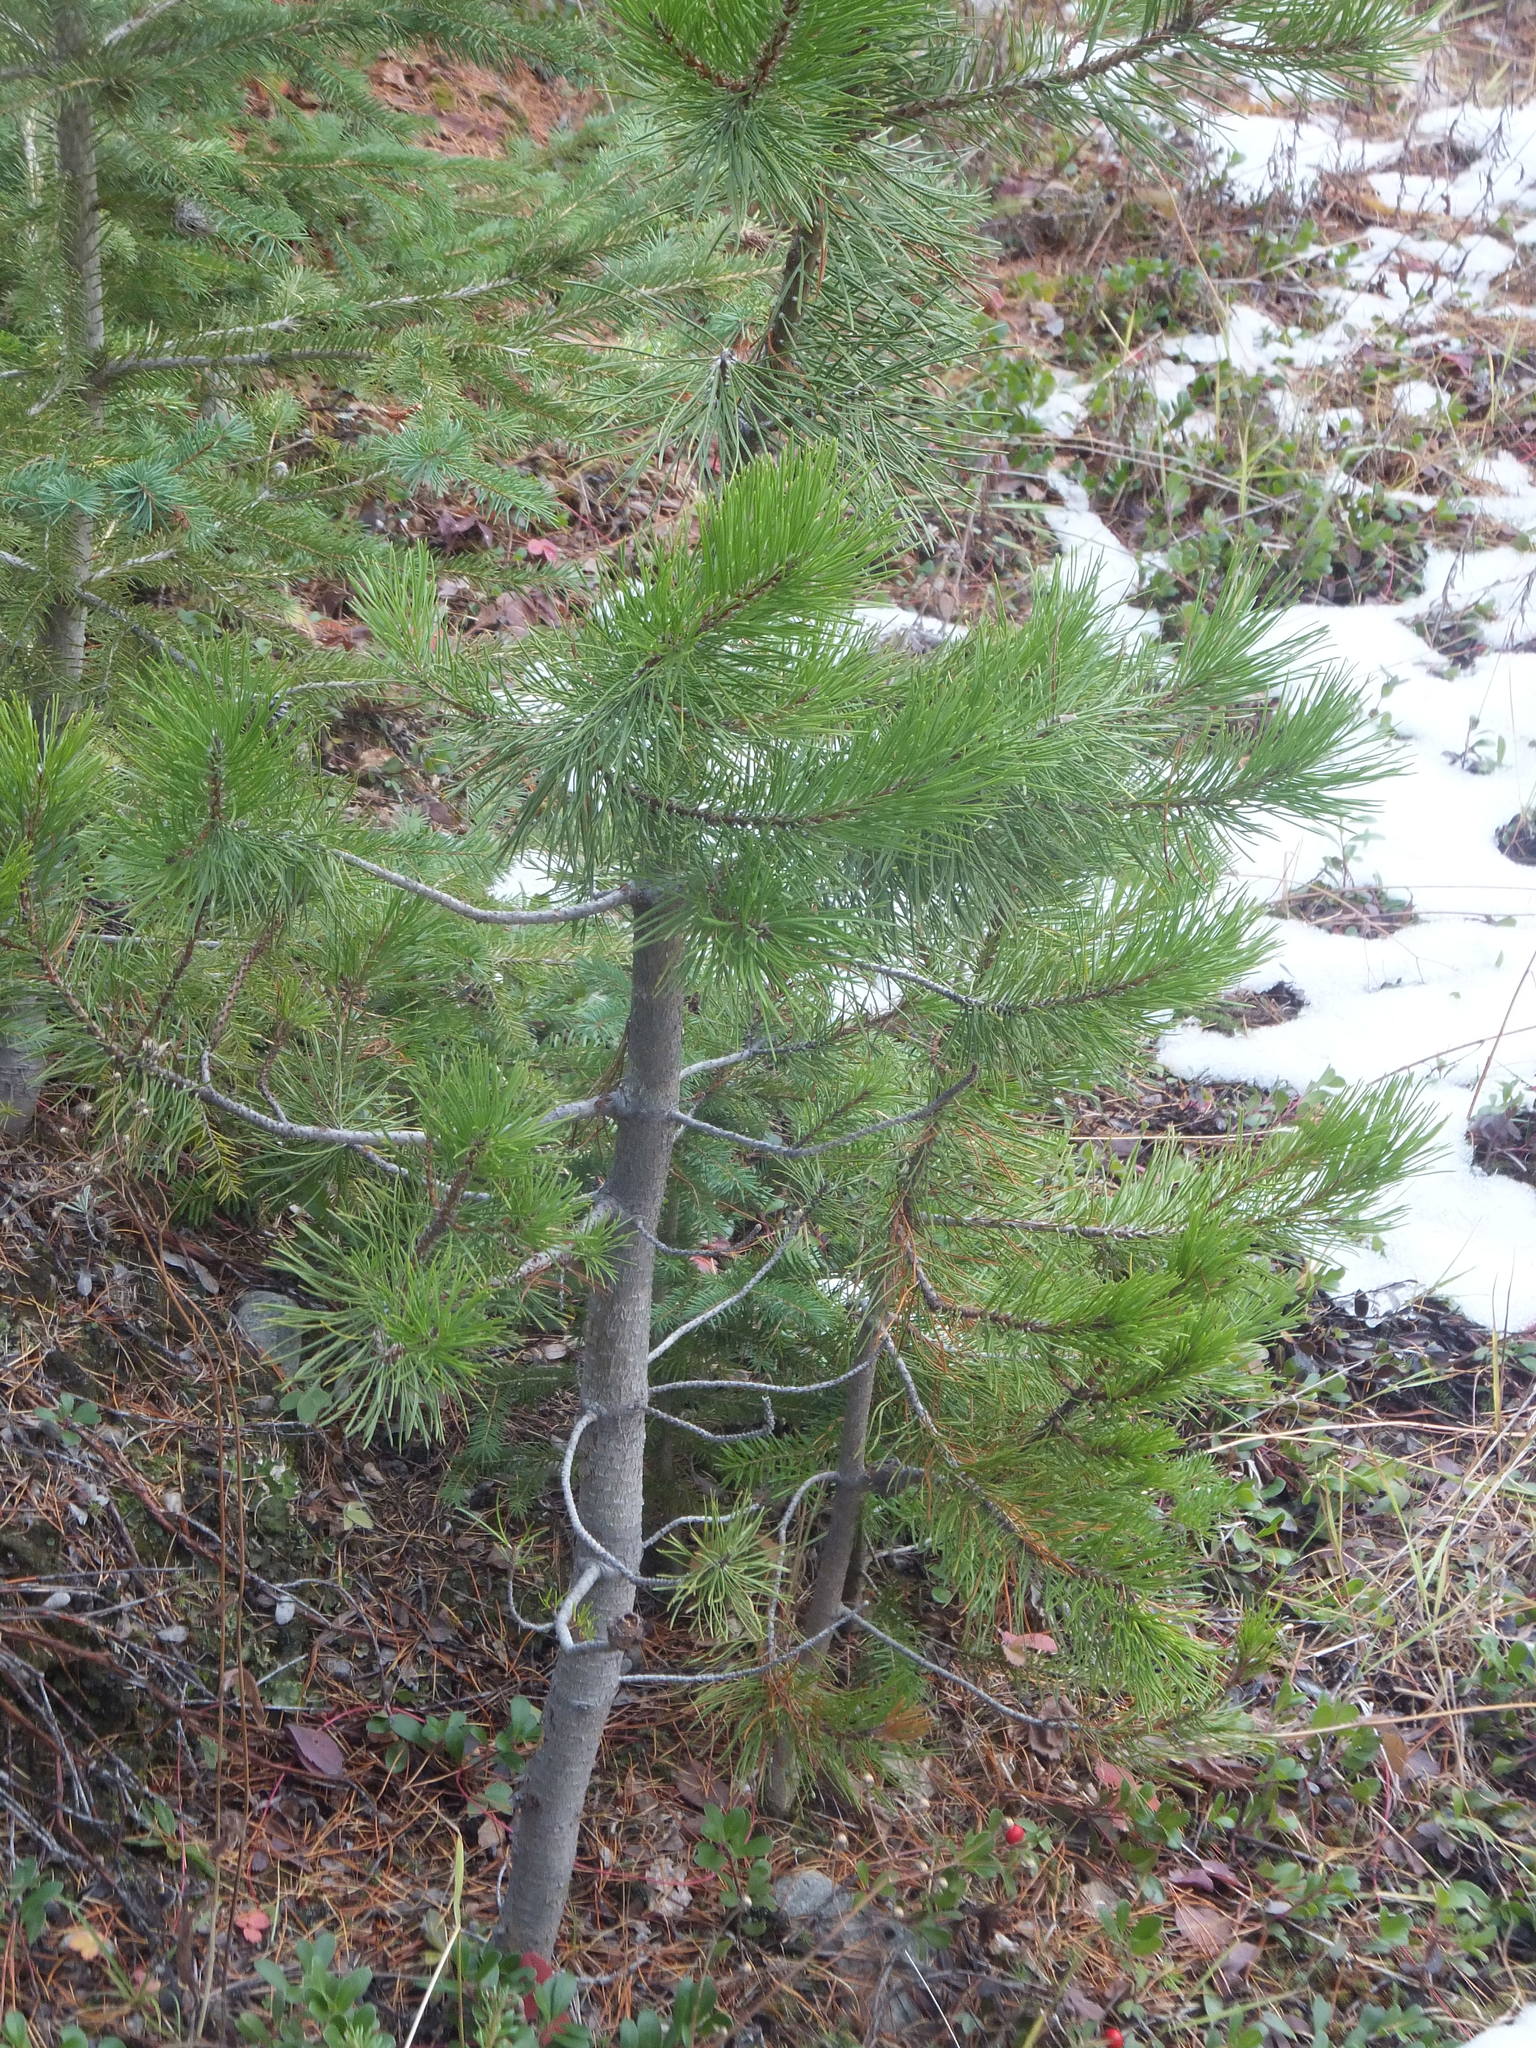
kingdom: Plantae
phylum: Tracheophyta
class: Pinopsida
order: Pinales
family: Pinaceae
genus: Pinus
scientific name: Pinus contorta
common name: Lodgepole pine
